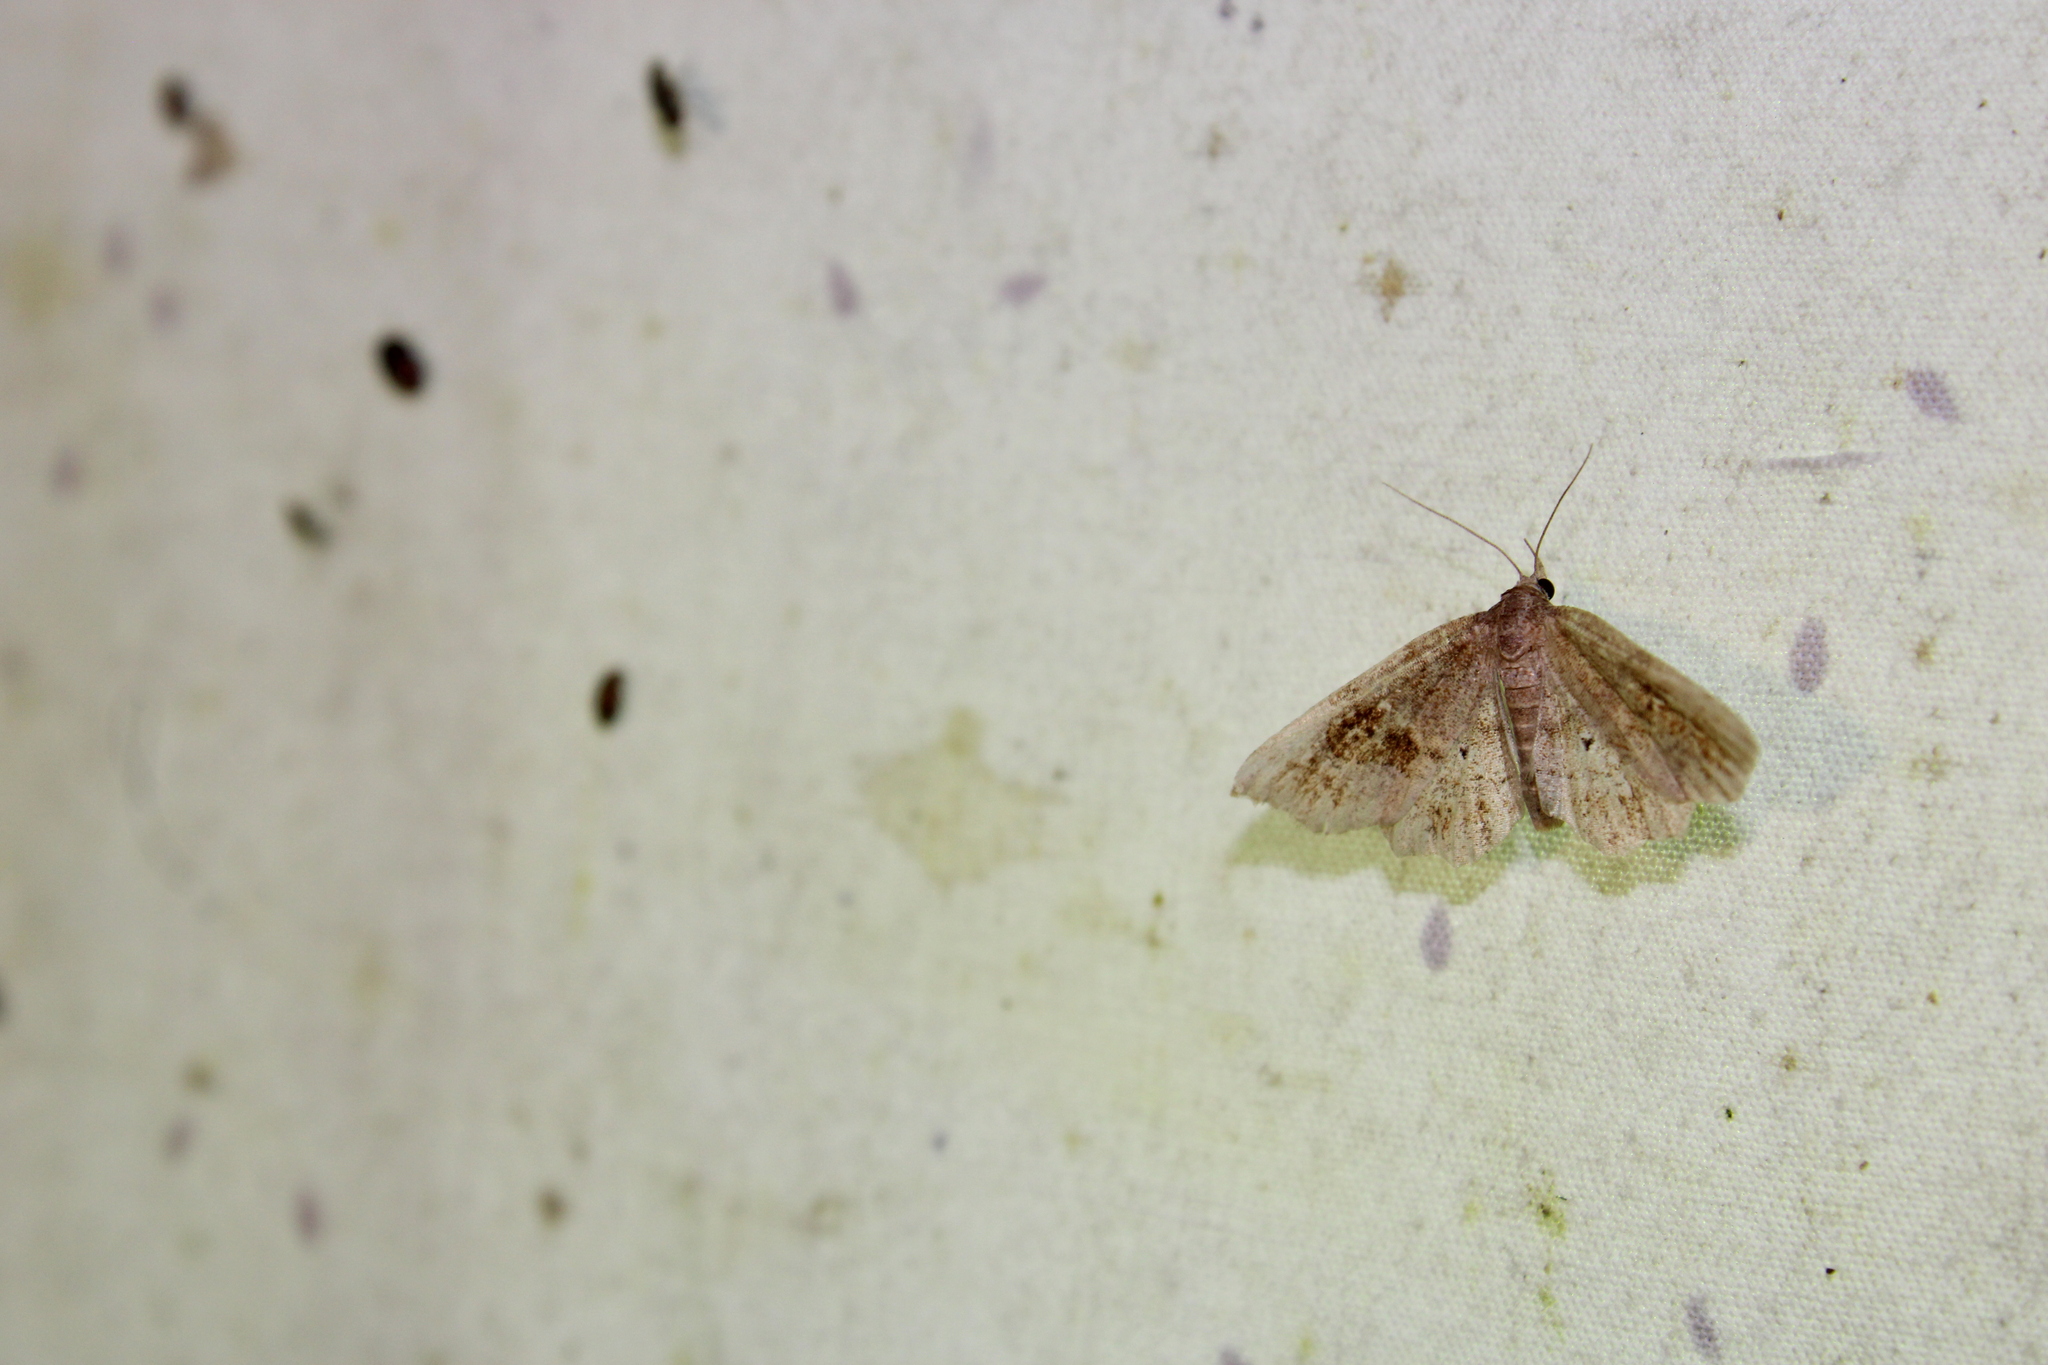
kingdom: Animalia
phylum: Arthropoda
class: Insecta
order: Lepidoptera
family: Erebidae
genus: Pangrapta
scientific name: Pangrapta decoralis
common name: Decorated owlet
